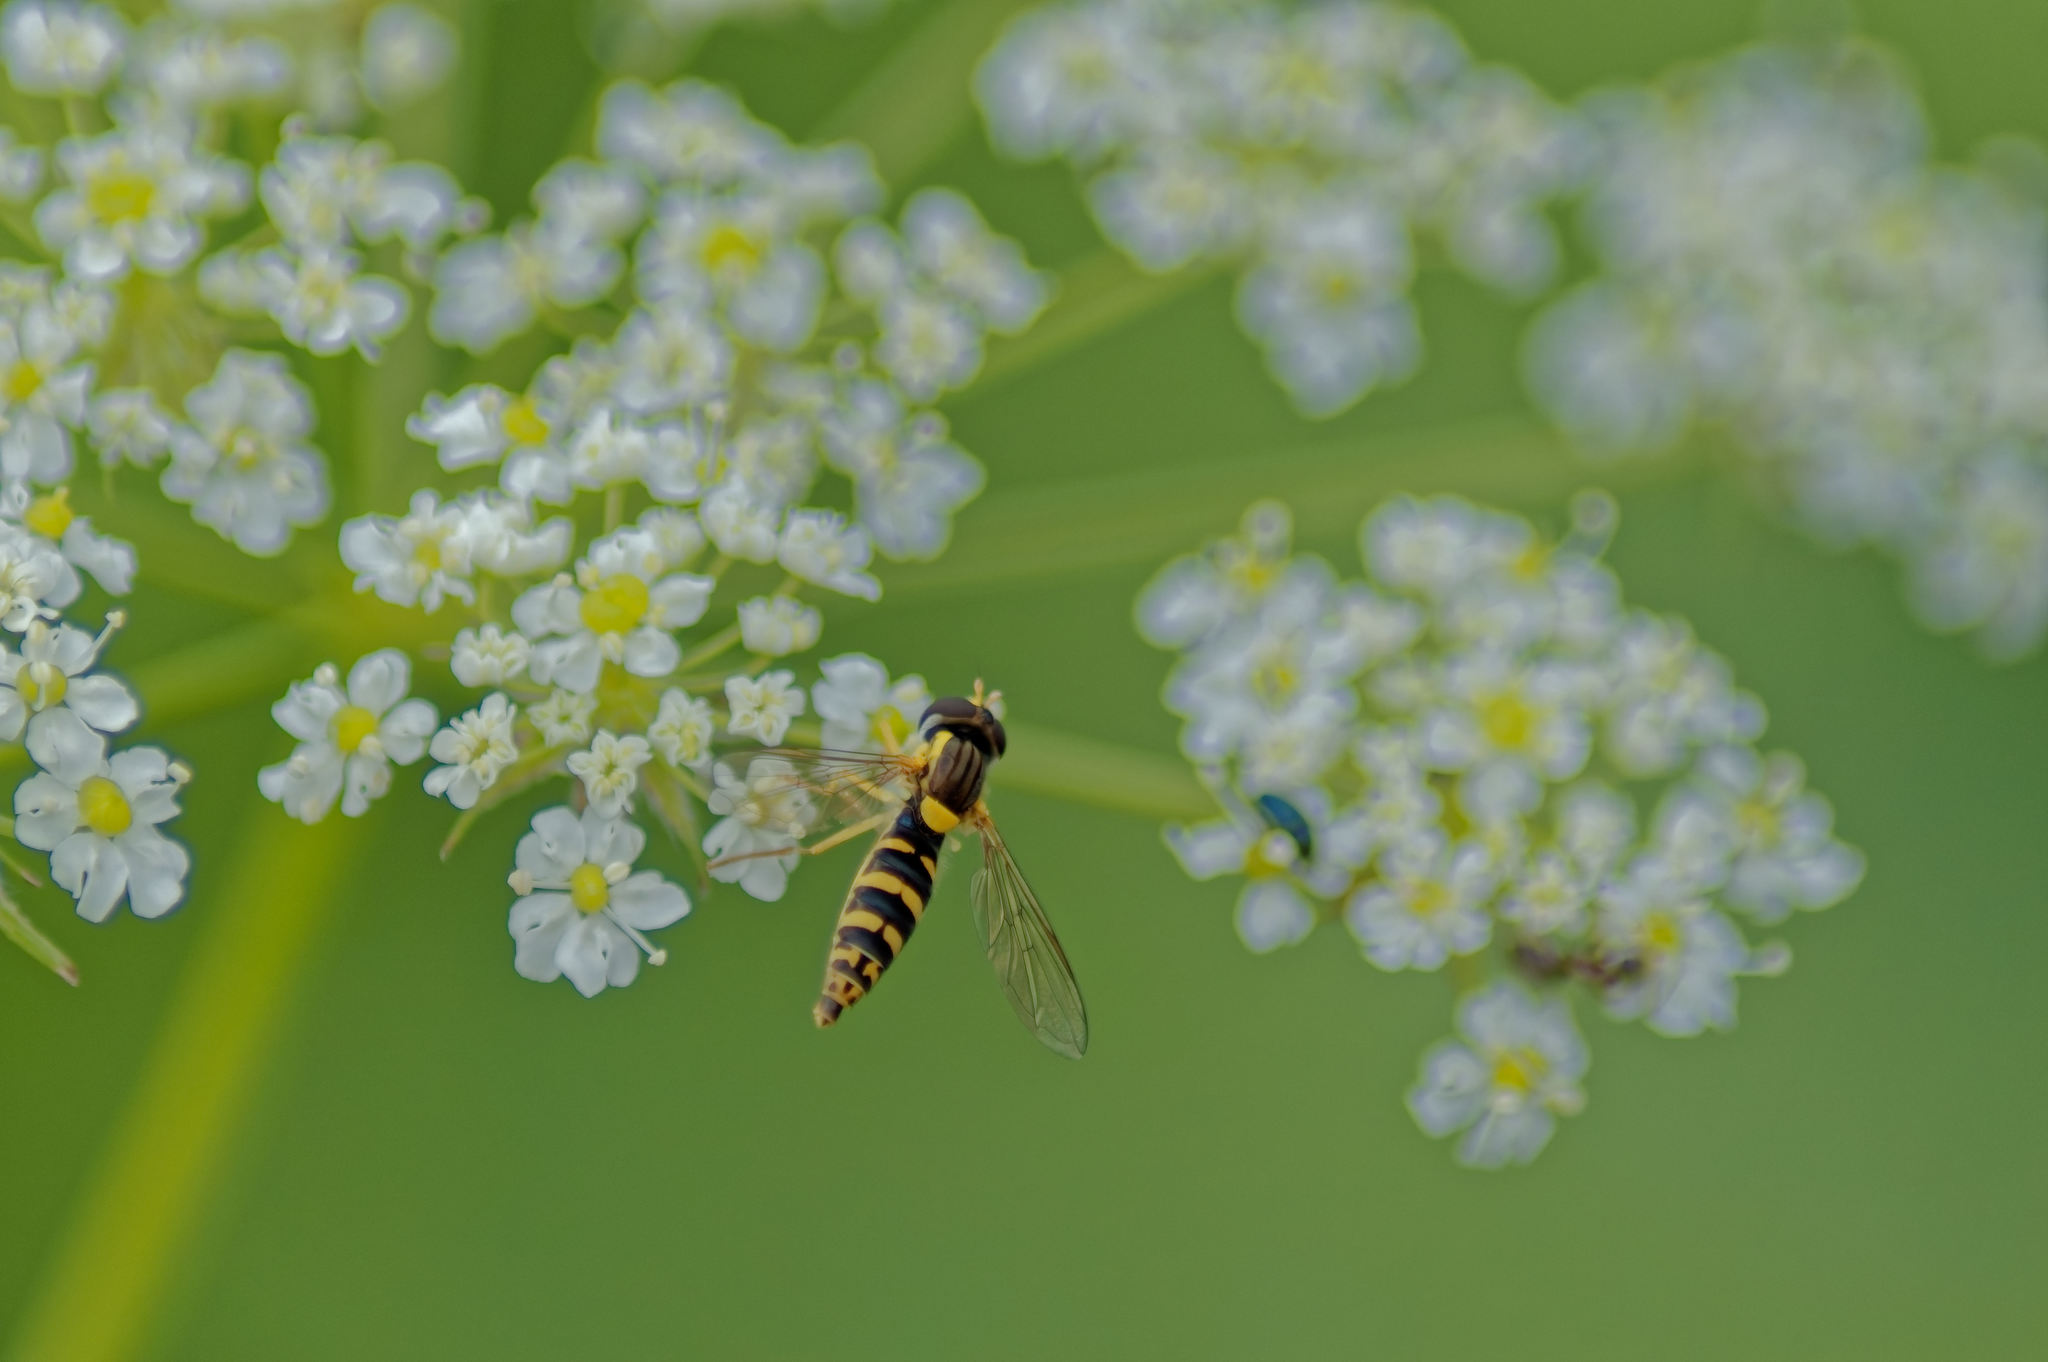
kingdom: Animalia
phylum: Arthropoda
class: Insecta
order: Diptera
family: Syrphidae
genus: Sphaerophoria
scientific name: Sphaerophoria
